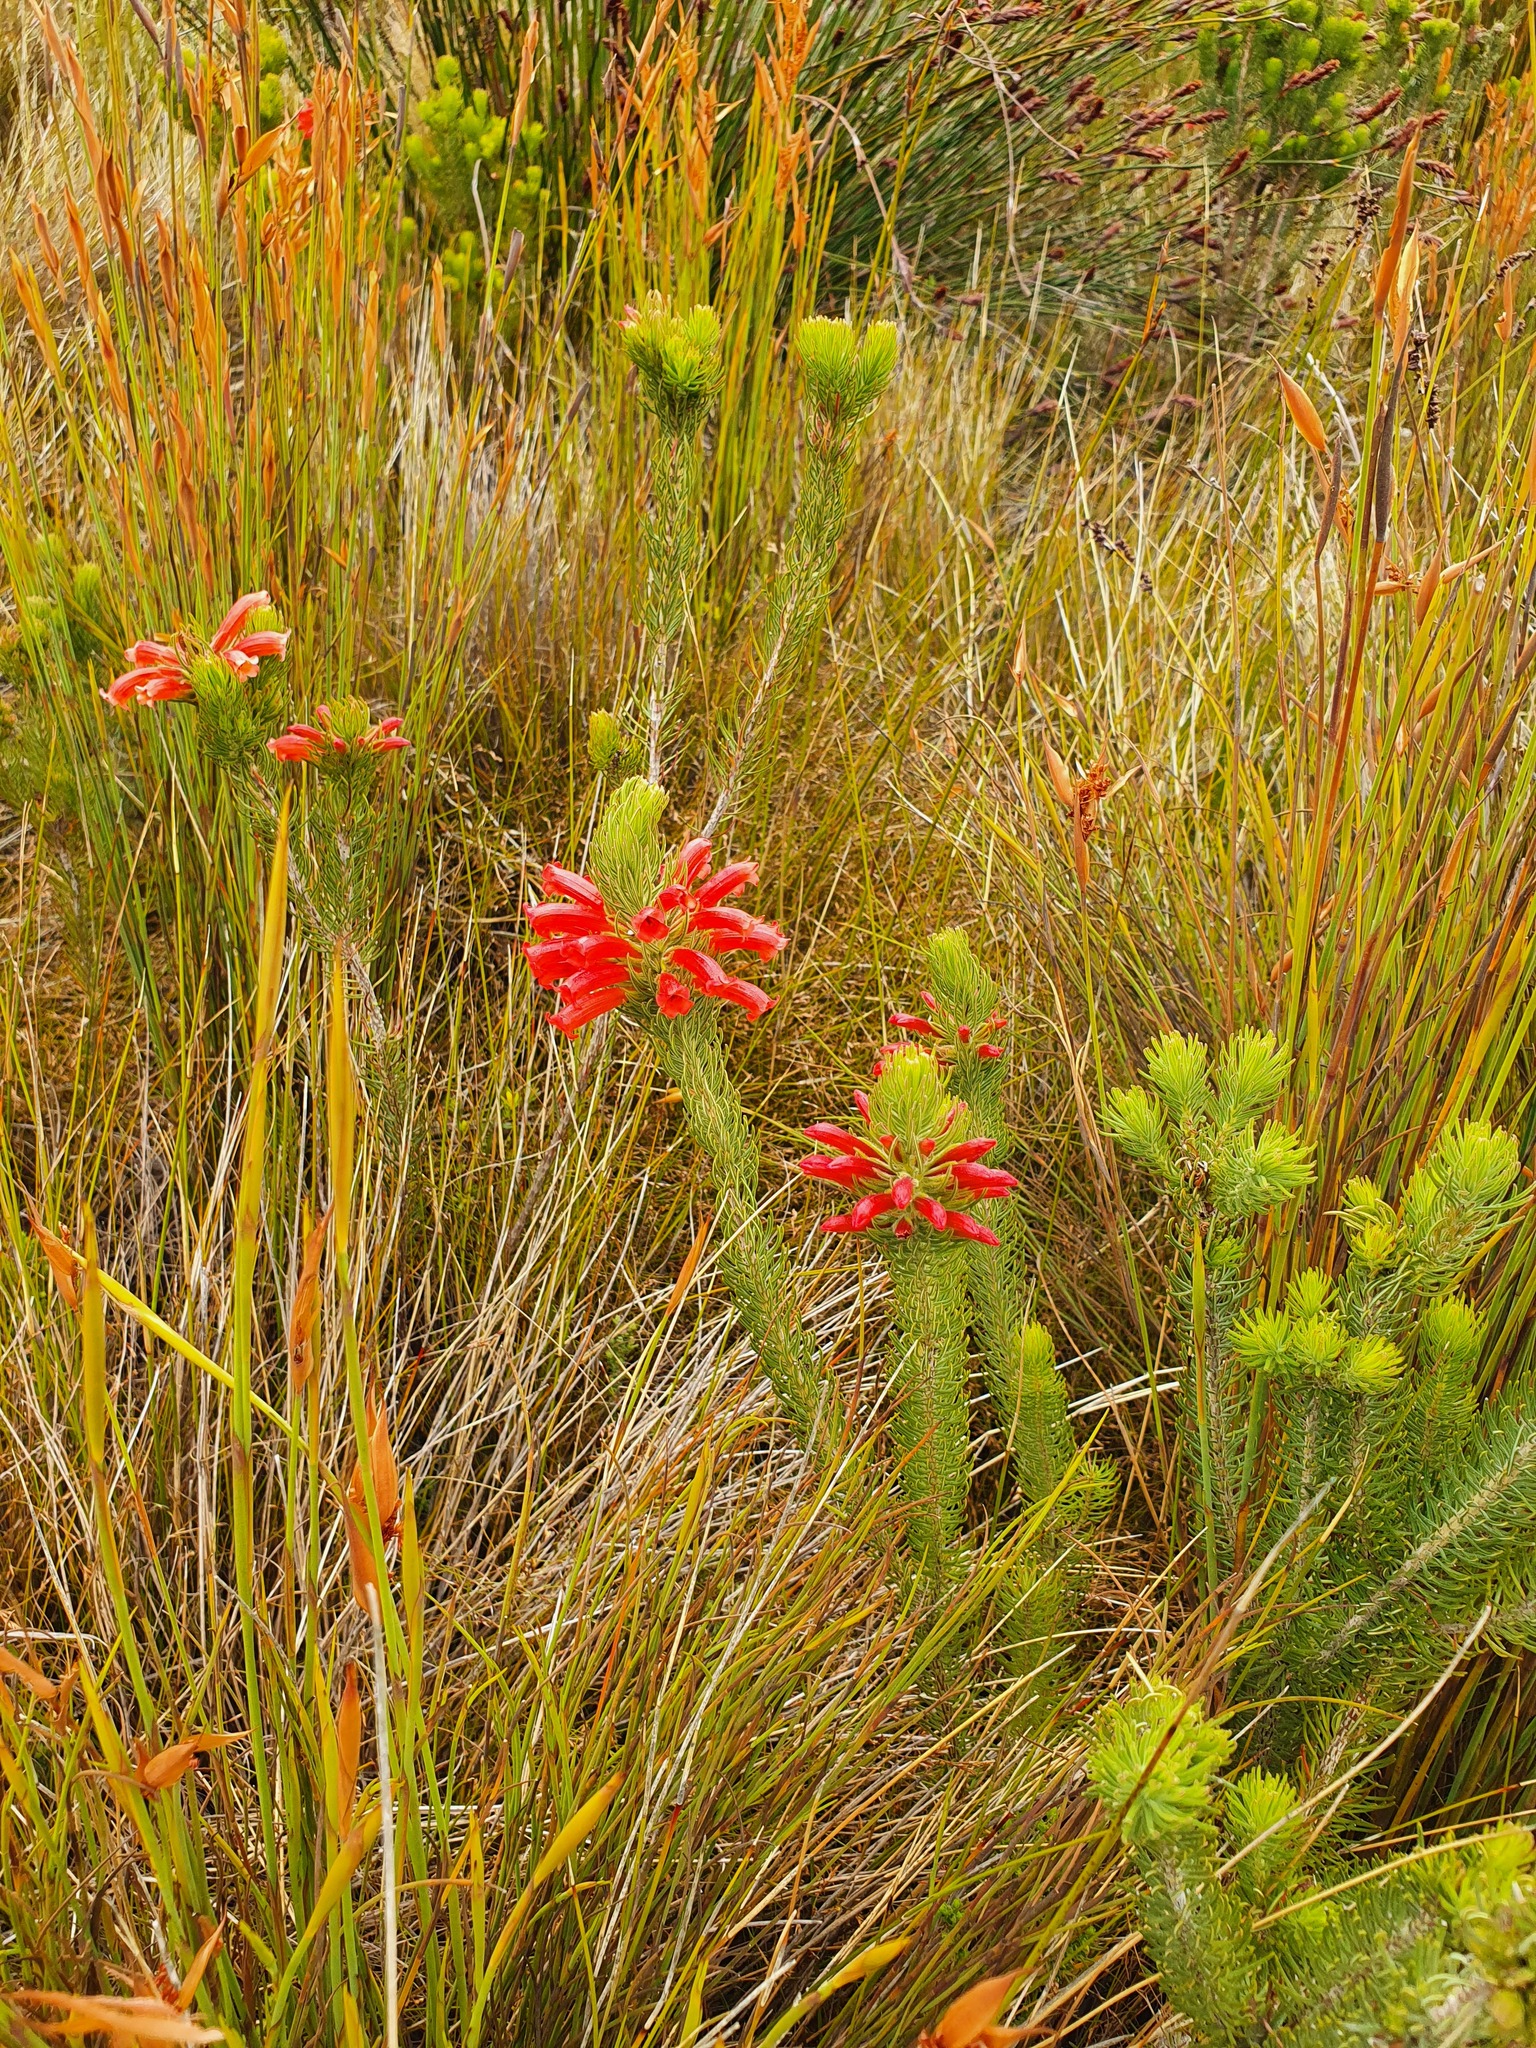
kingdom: Plantae
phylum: Tracheophyta
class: Magnoliopsida
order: Ericales
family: Ericaceae
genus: Erica
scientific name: Erica viscaria
